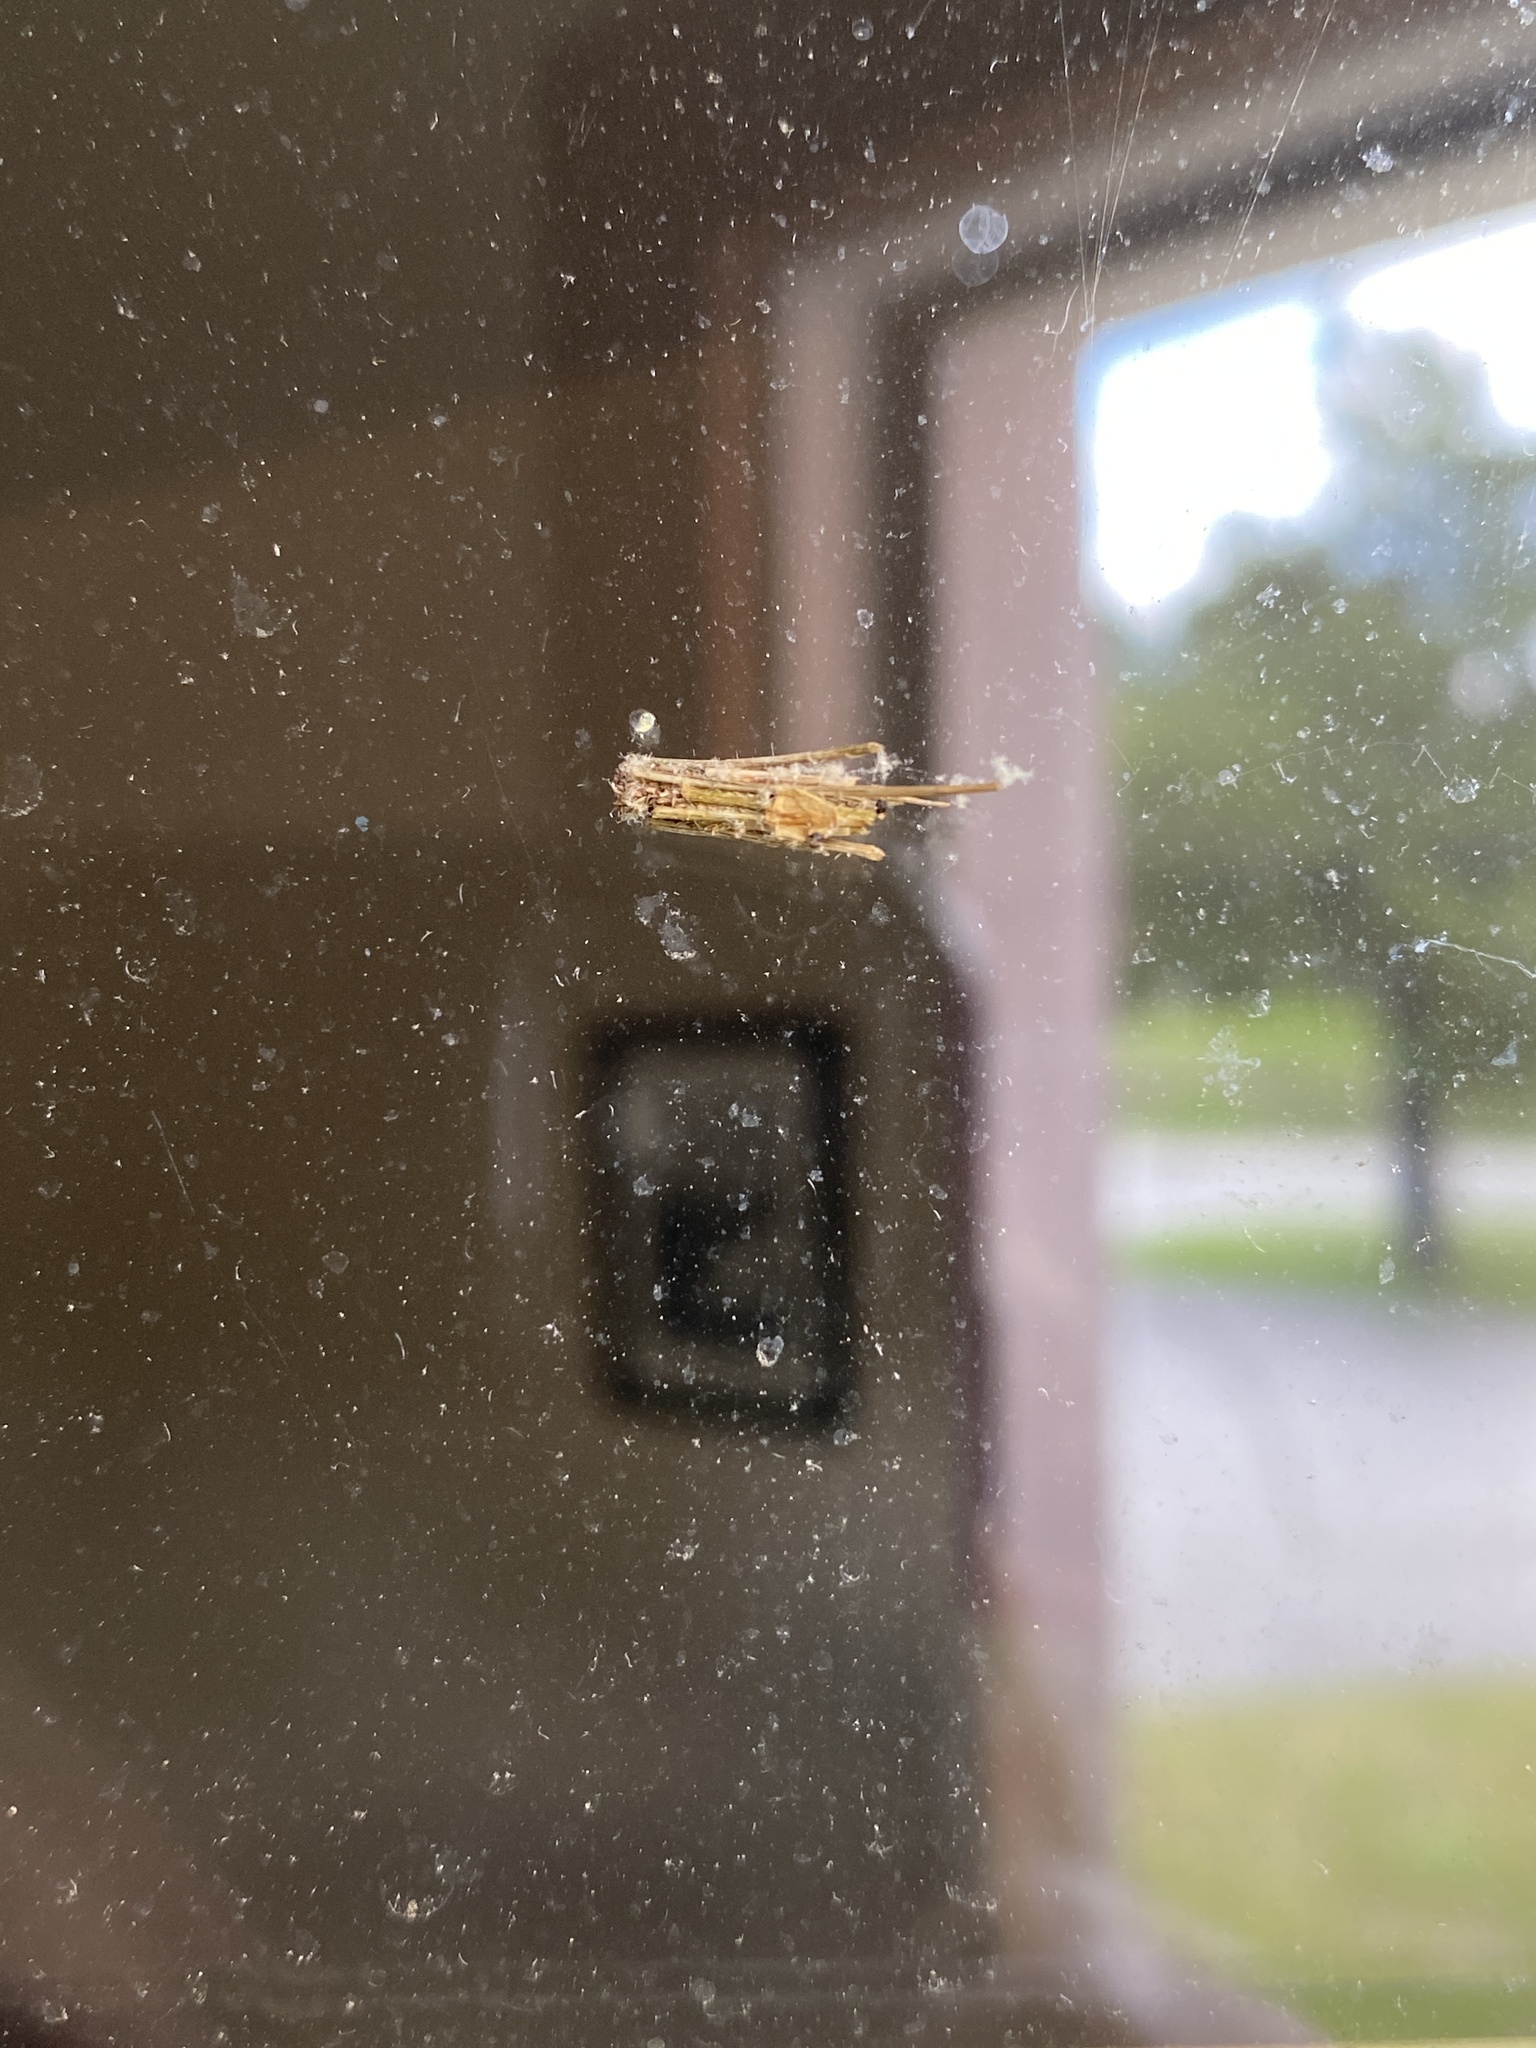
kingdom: Animalia
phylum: Arthropoda
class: Insecta
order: Lepidoptera
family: Psychidae
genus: Psyche
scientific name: Psyche casta
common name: Common sweep
